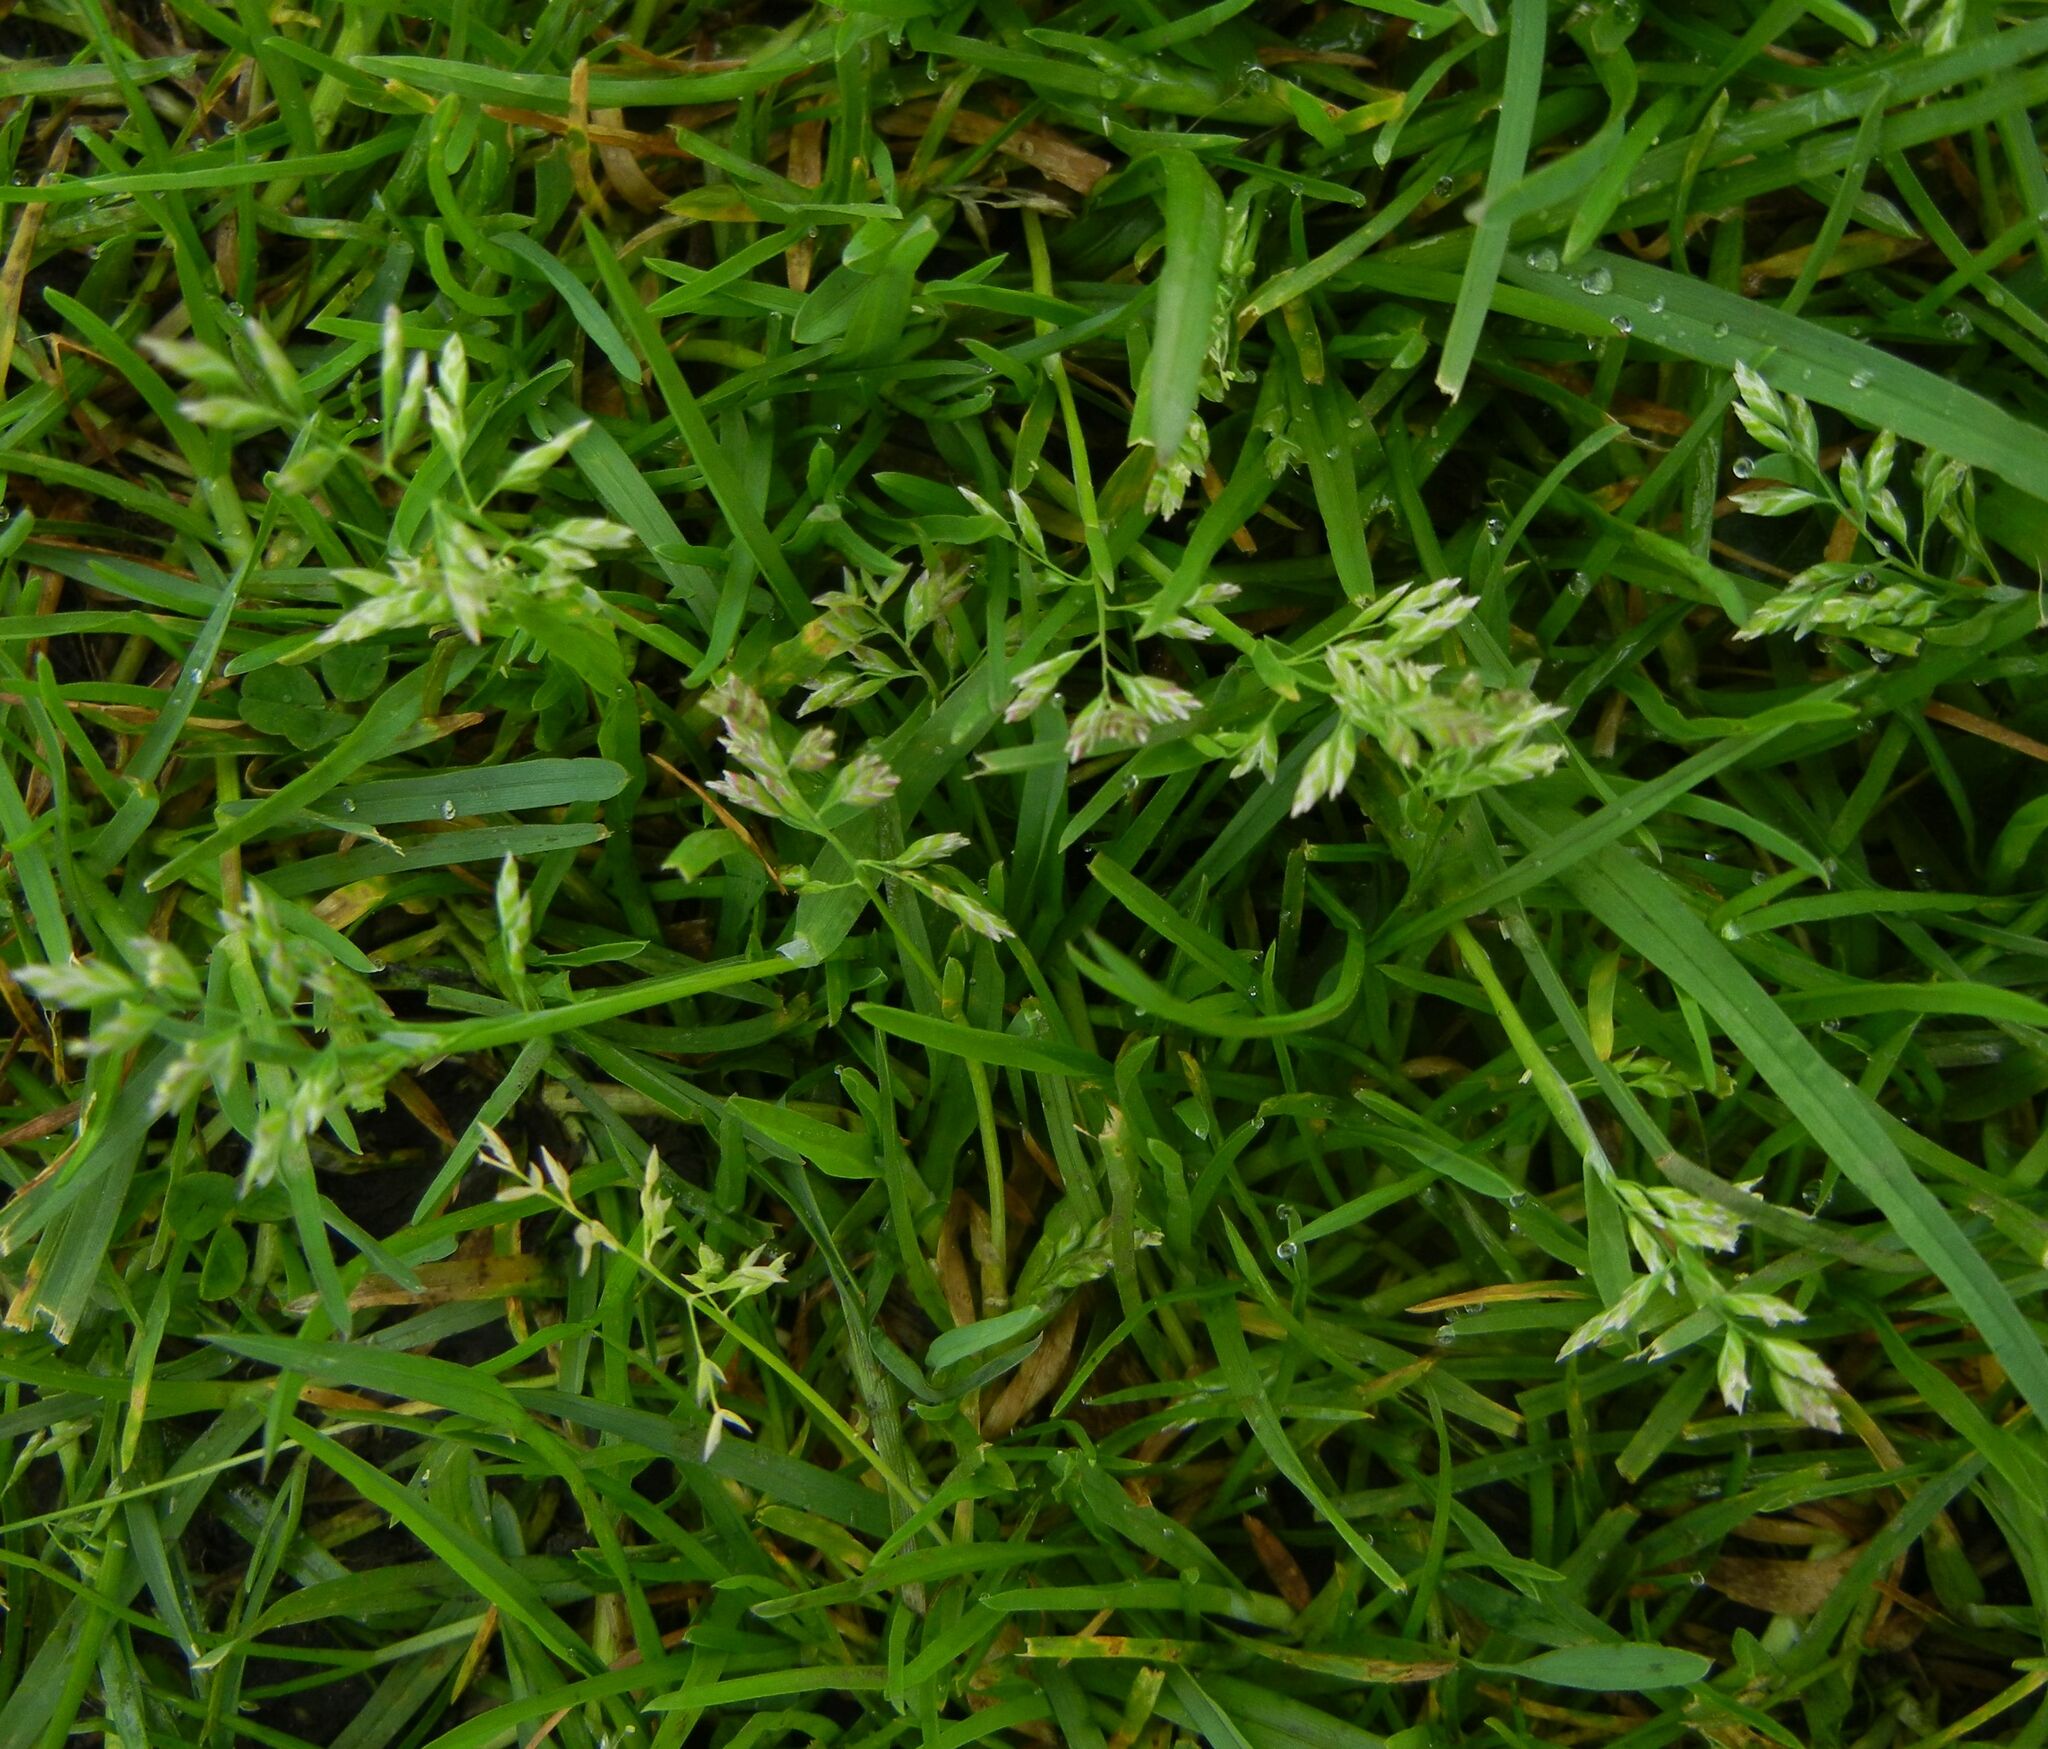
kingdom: Plantae
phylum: Tracheophyta
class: Liliopsida
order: Poales
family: Poaceae
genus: Poa
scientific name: Poa annua
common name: Annual bluegrass
